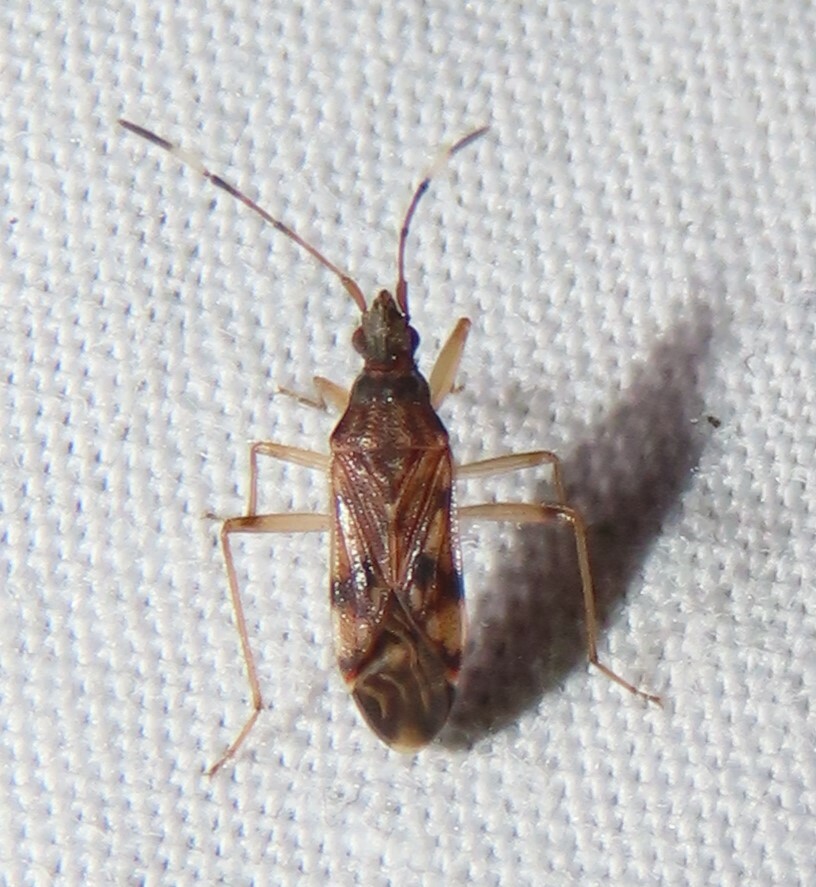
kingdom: Animalia
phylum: Arthropoda
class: Insecta
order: Hemiptera
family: Rhyparochromidae
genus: Ozophora
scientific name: Ozophora picturata
